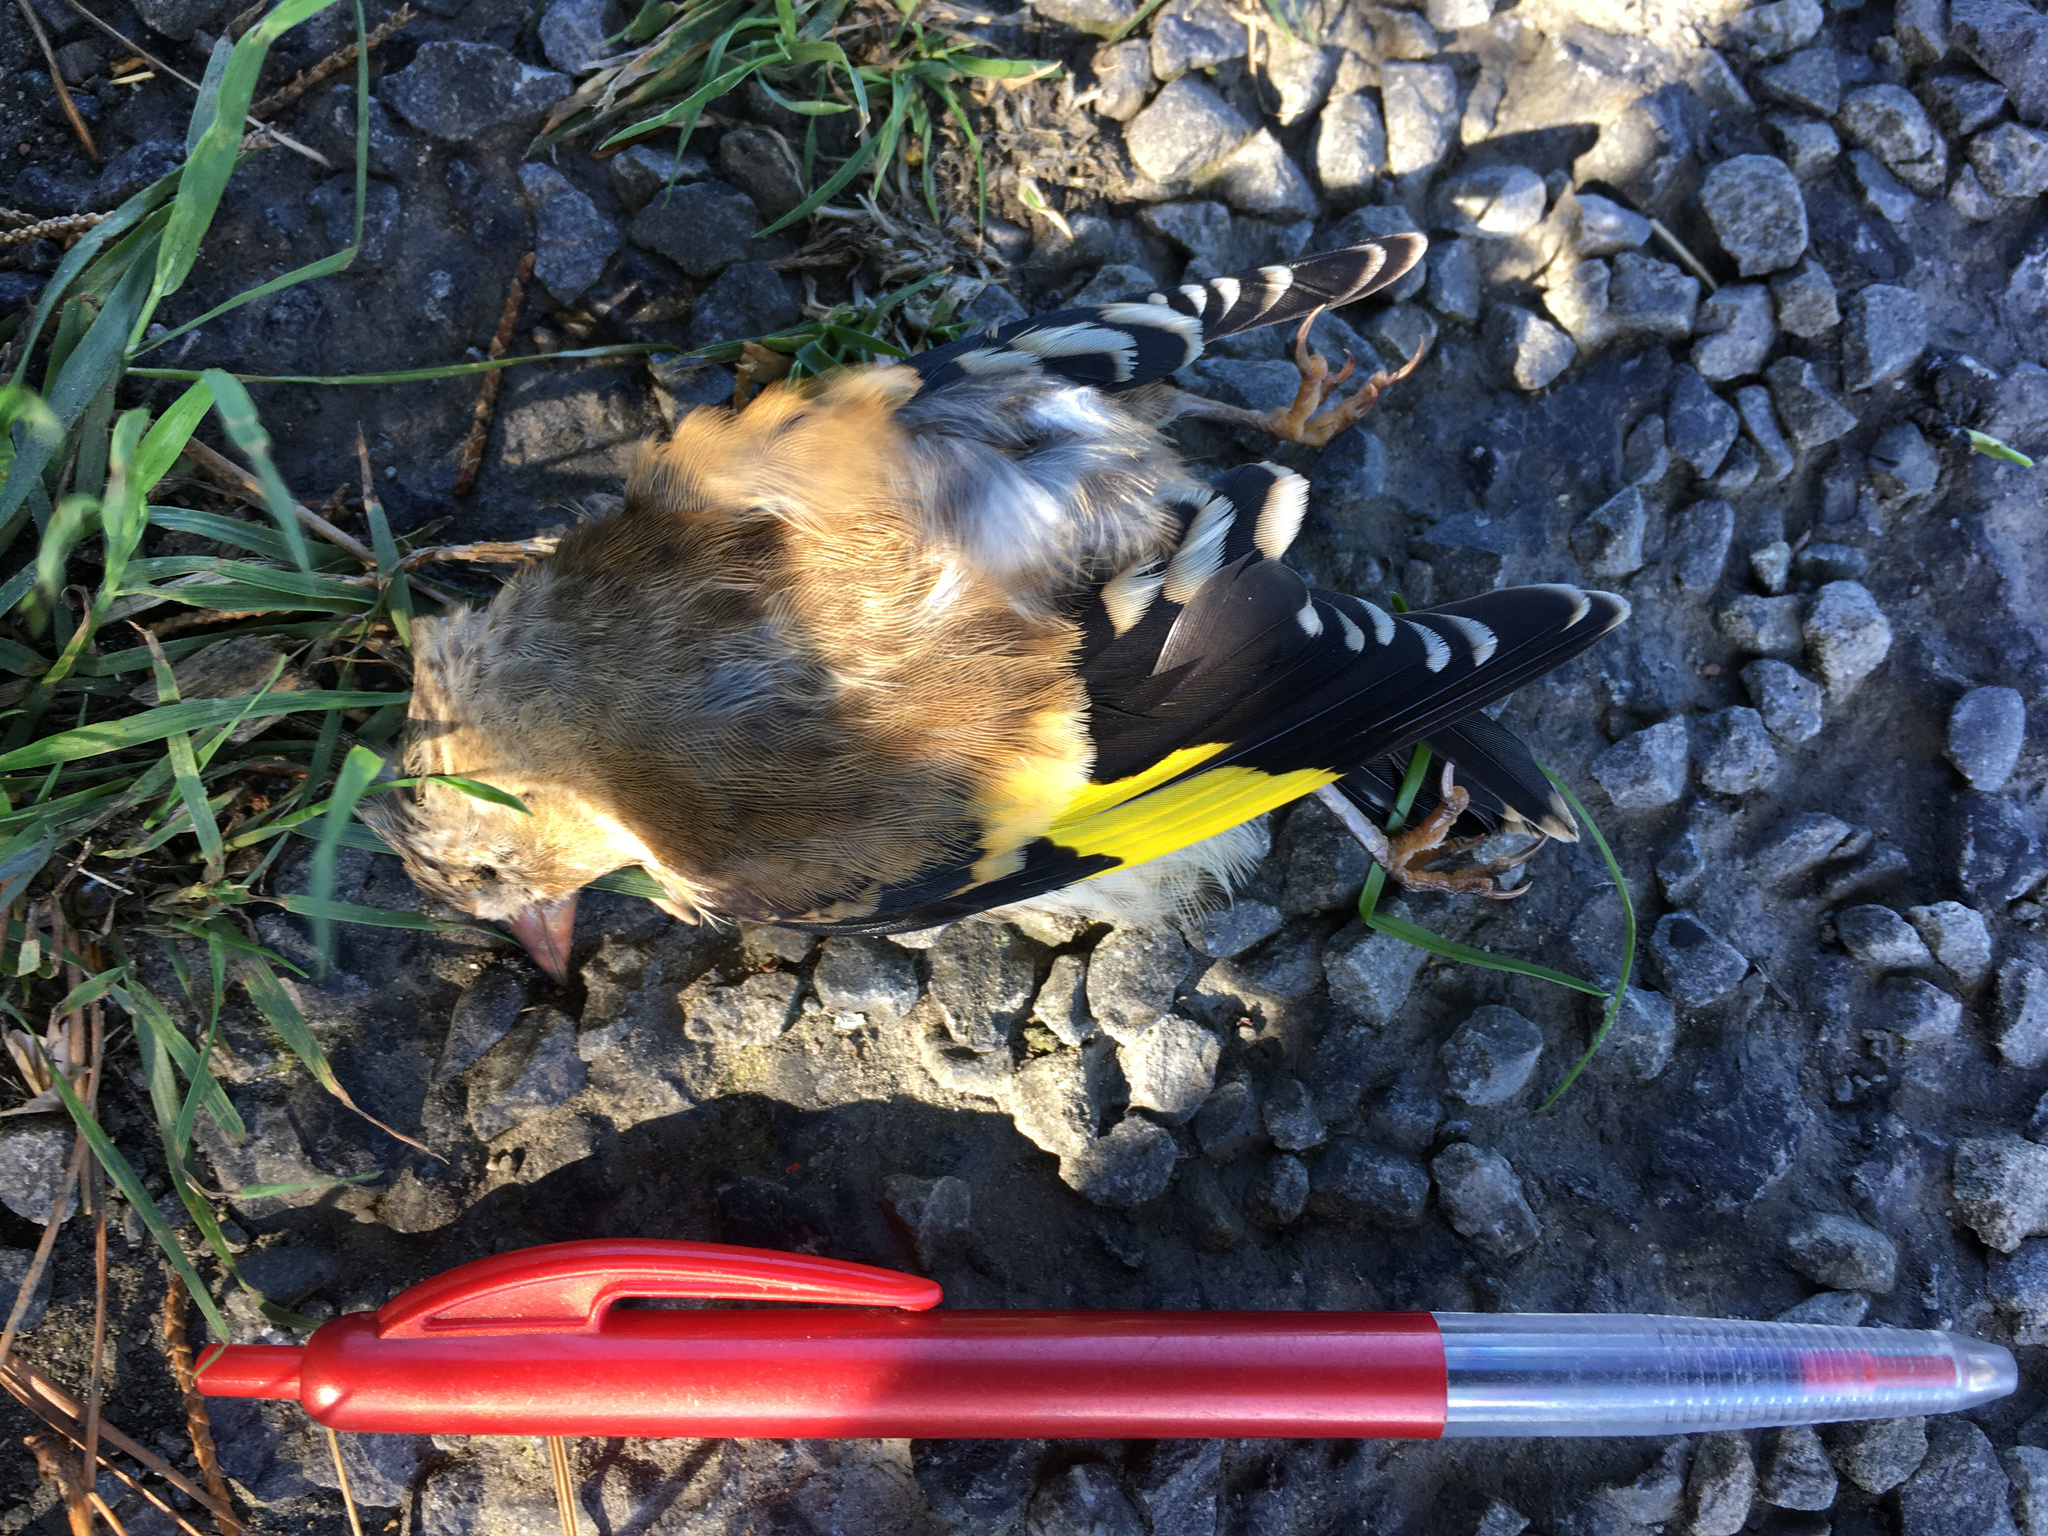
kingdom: Animalia
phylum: Chordata
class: Aves
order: Passeriformes
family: Fringillidae
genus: Carduelis
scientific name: Carduelis carduelis
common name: European goldfinch
